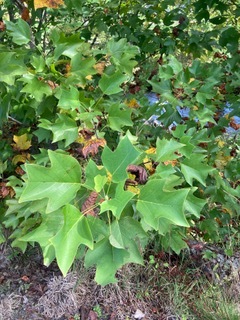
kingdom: Plantae
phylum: Tracheophyta
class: Magnoliopsida
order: Magnoliales
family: Magnoliaceae
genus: Liriodendron
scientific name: Liriodendron tulipifera
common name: Tulip tree
